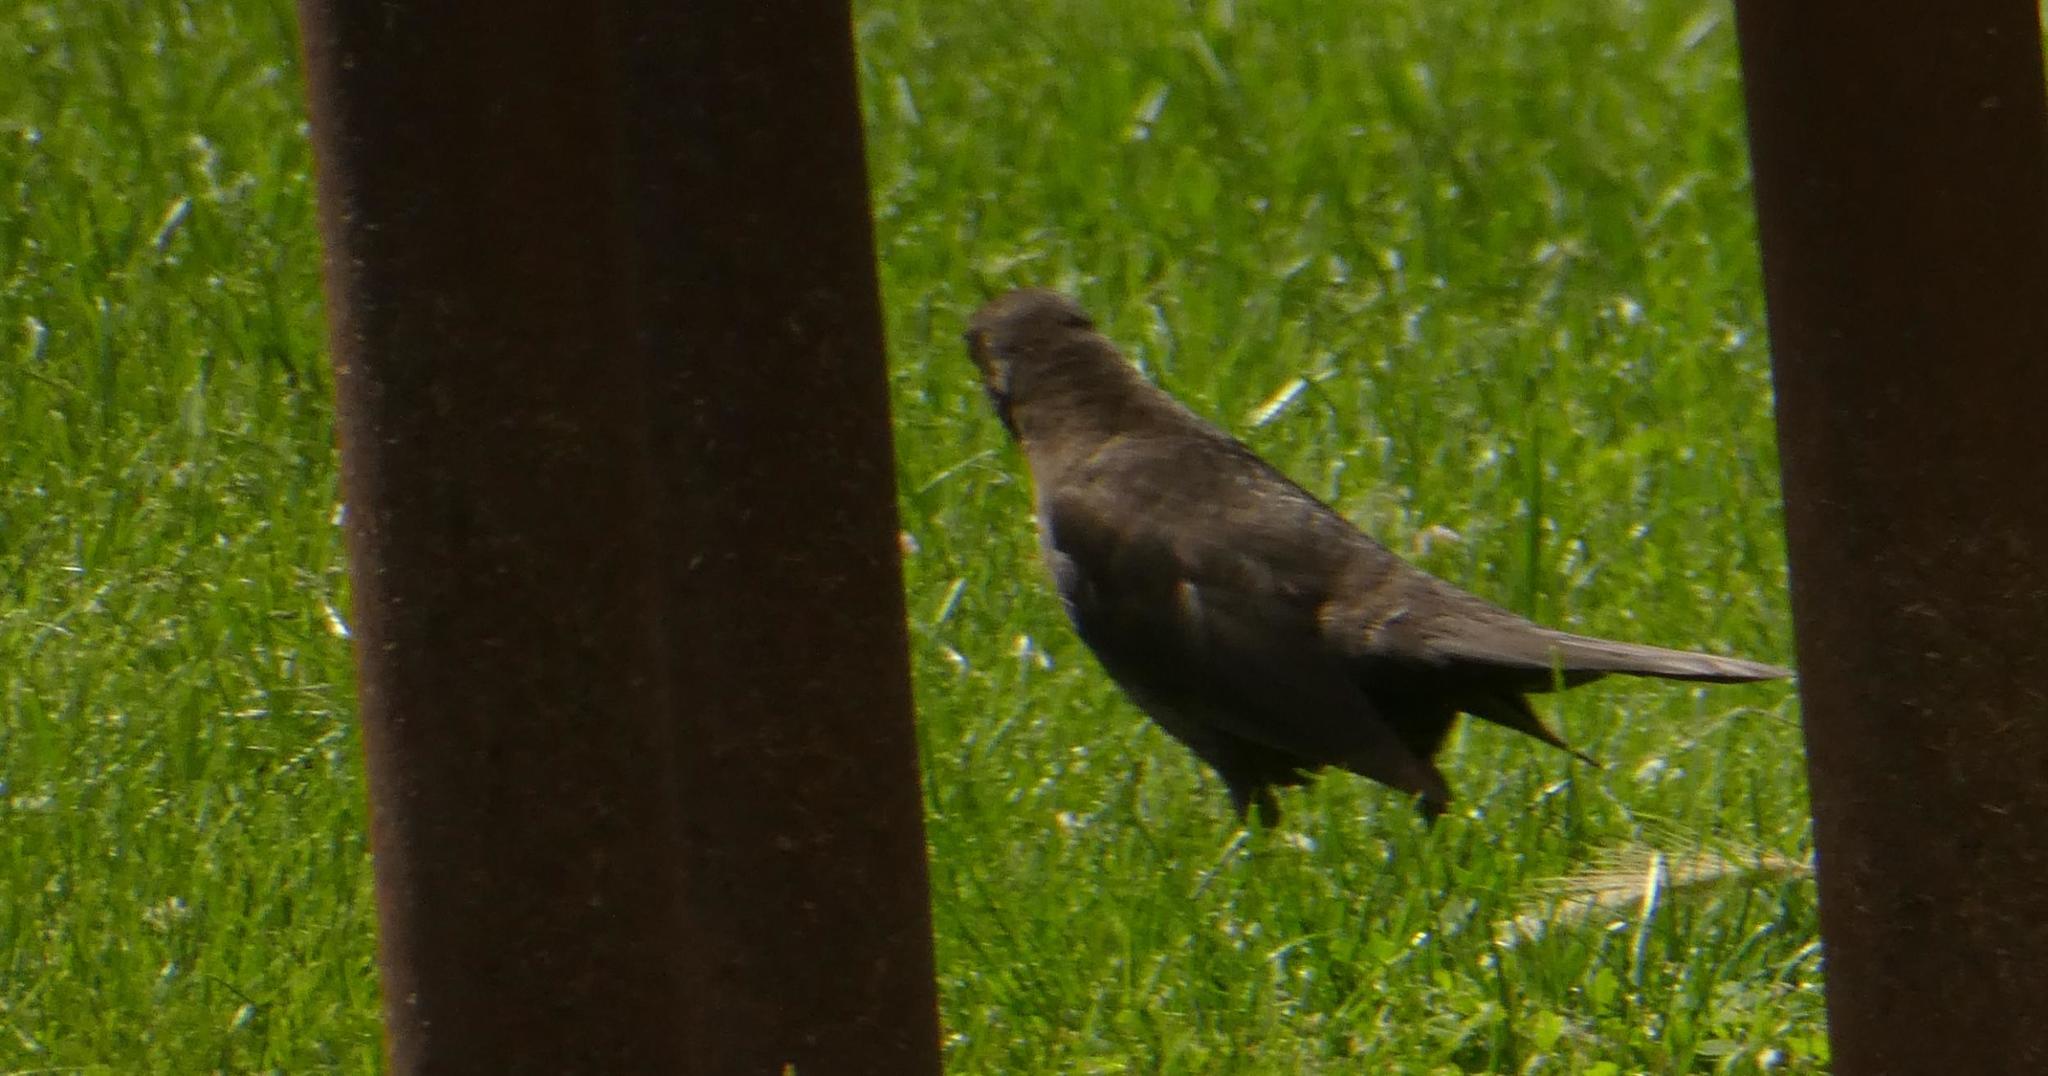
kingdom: Animalia
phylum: Chordata
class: Aves
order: Passeriformes
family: Turdidae
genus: Turdus
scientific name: Turdus merula
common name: Common blackbird
